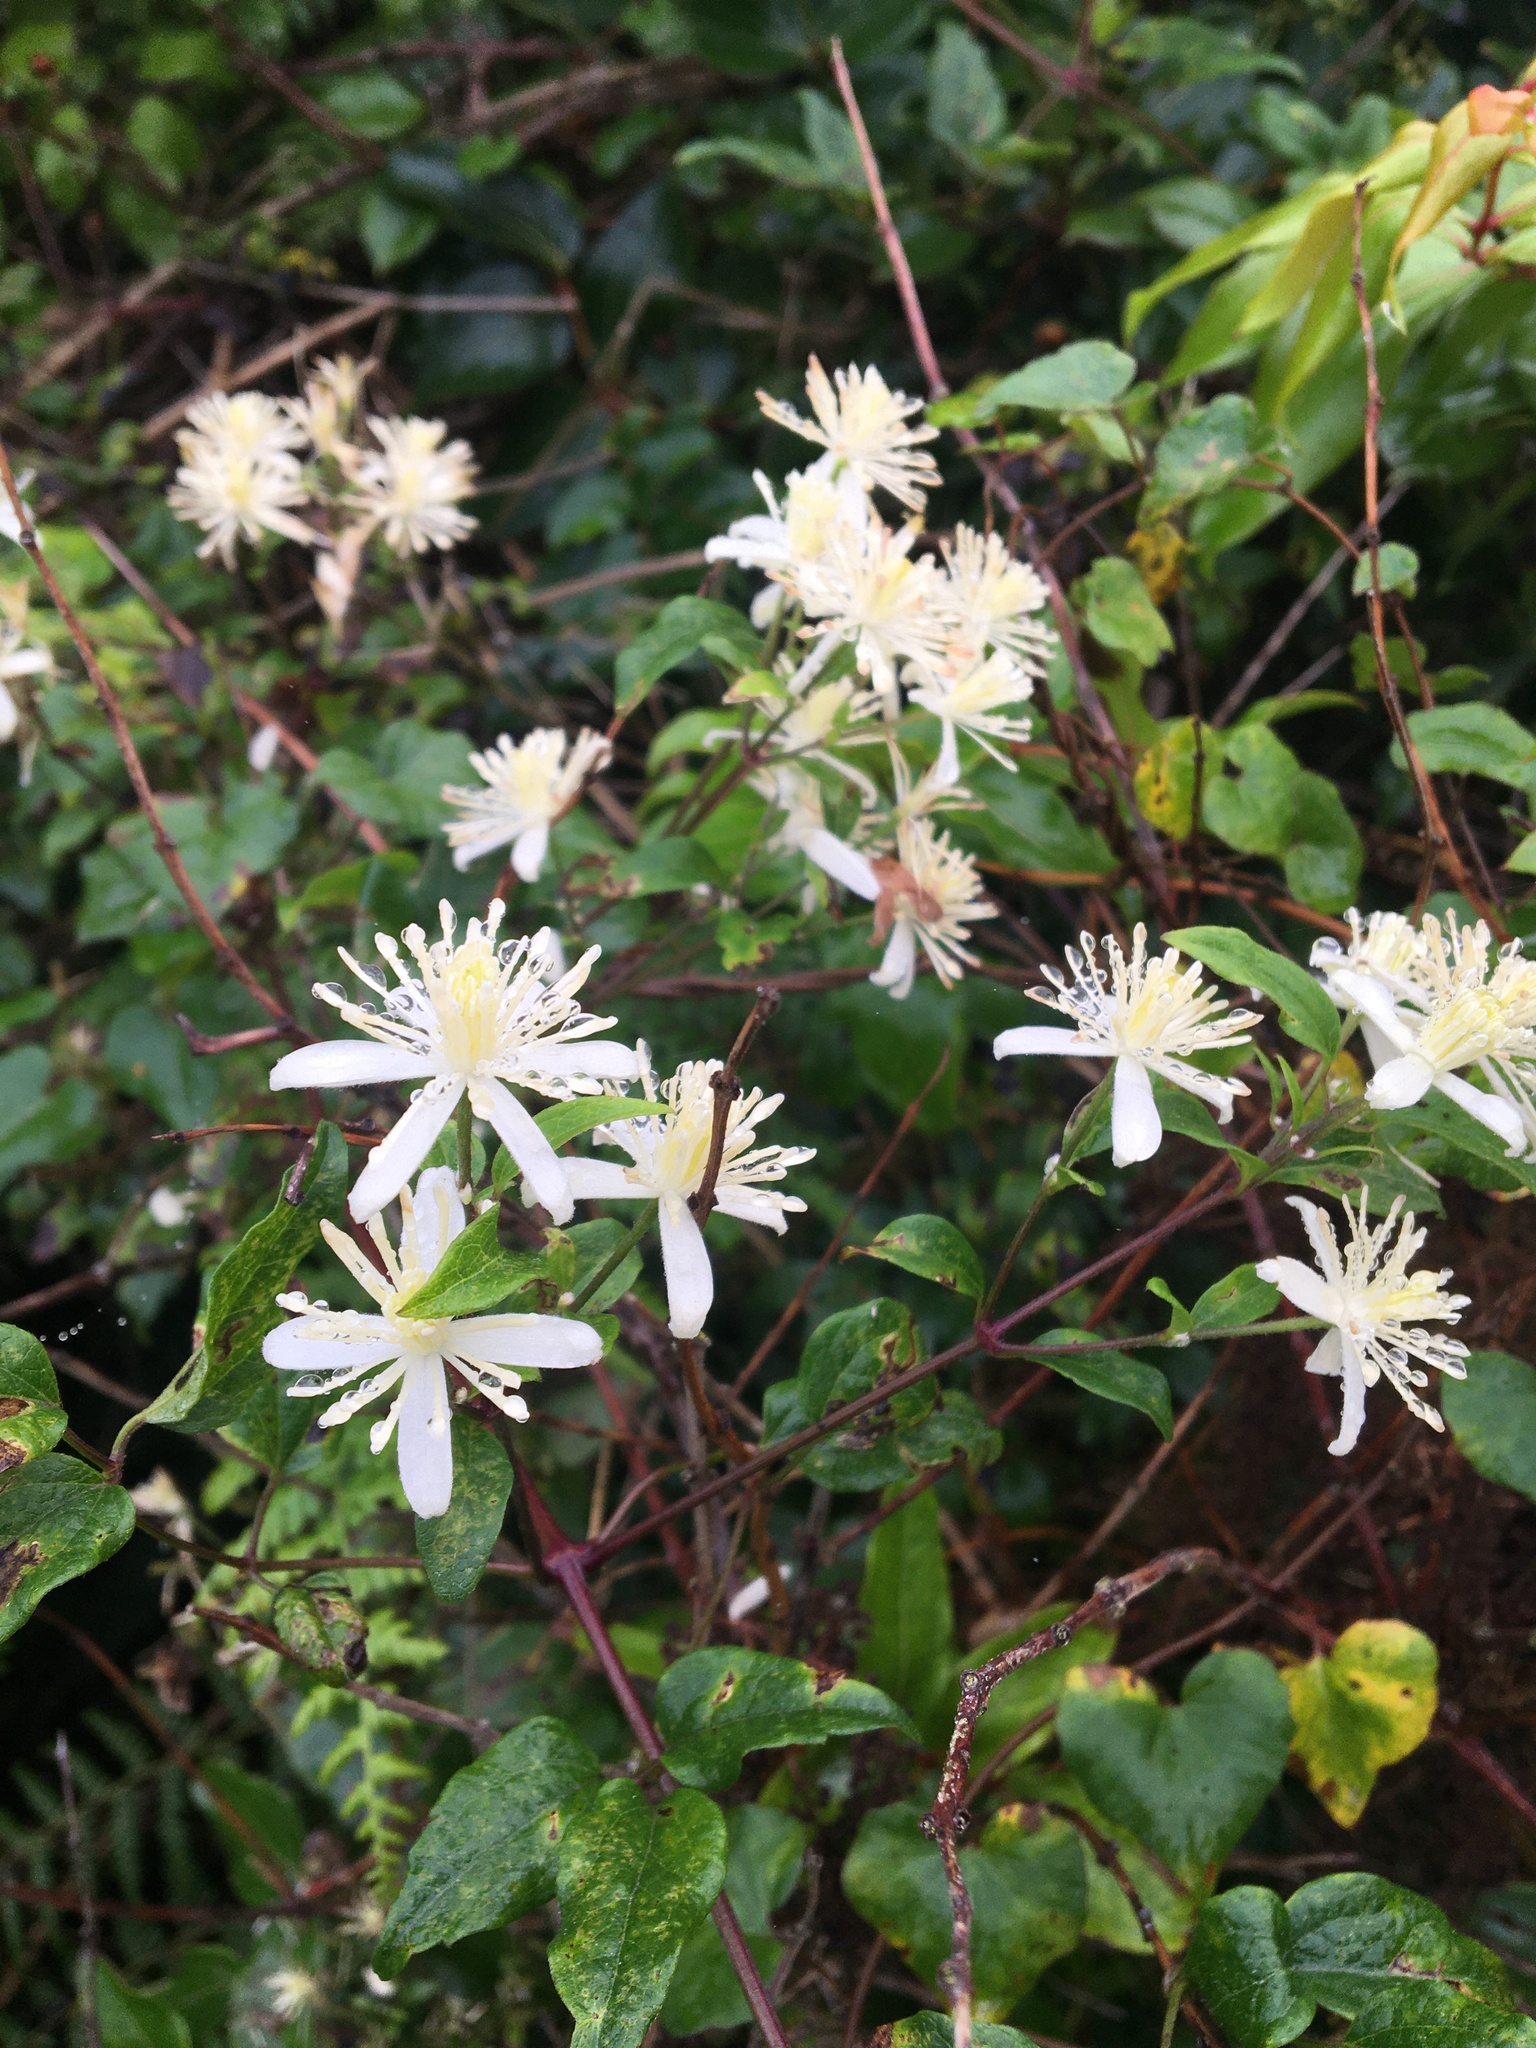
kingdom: Plantae
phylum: Tracheophyta
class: Magnoliopsida
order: Ranunculales
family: Ranunculaceae
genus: Clematis
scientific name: Clematis vitalba
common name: Evergreen clematis
